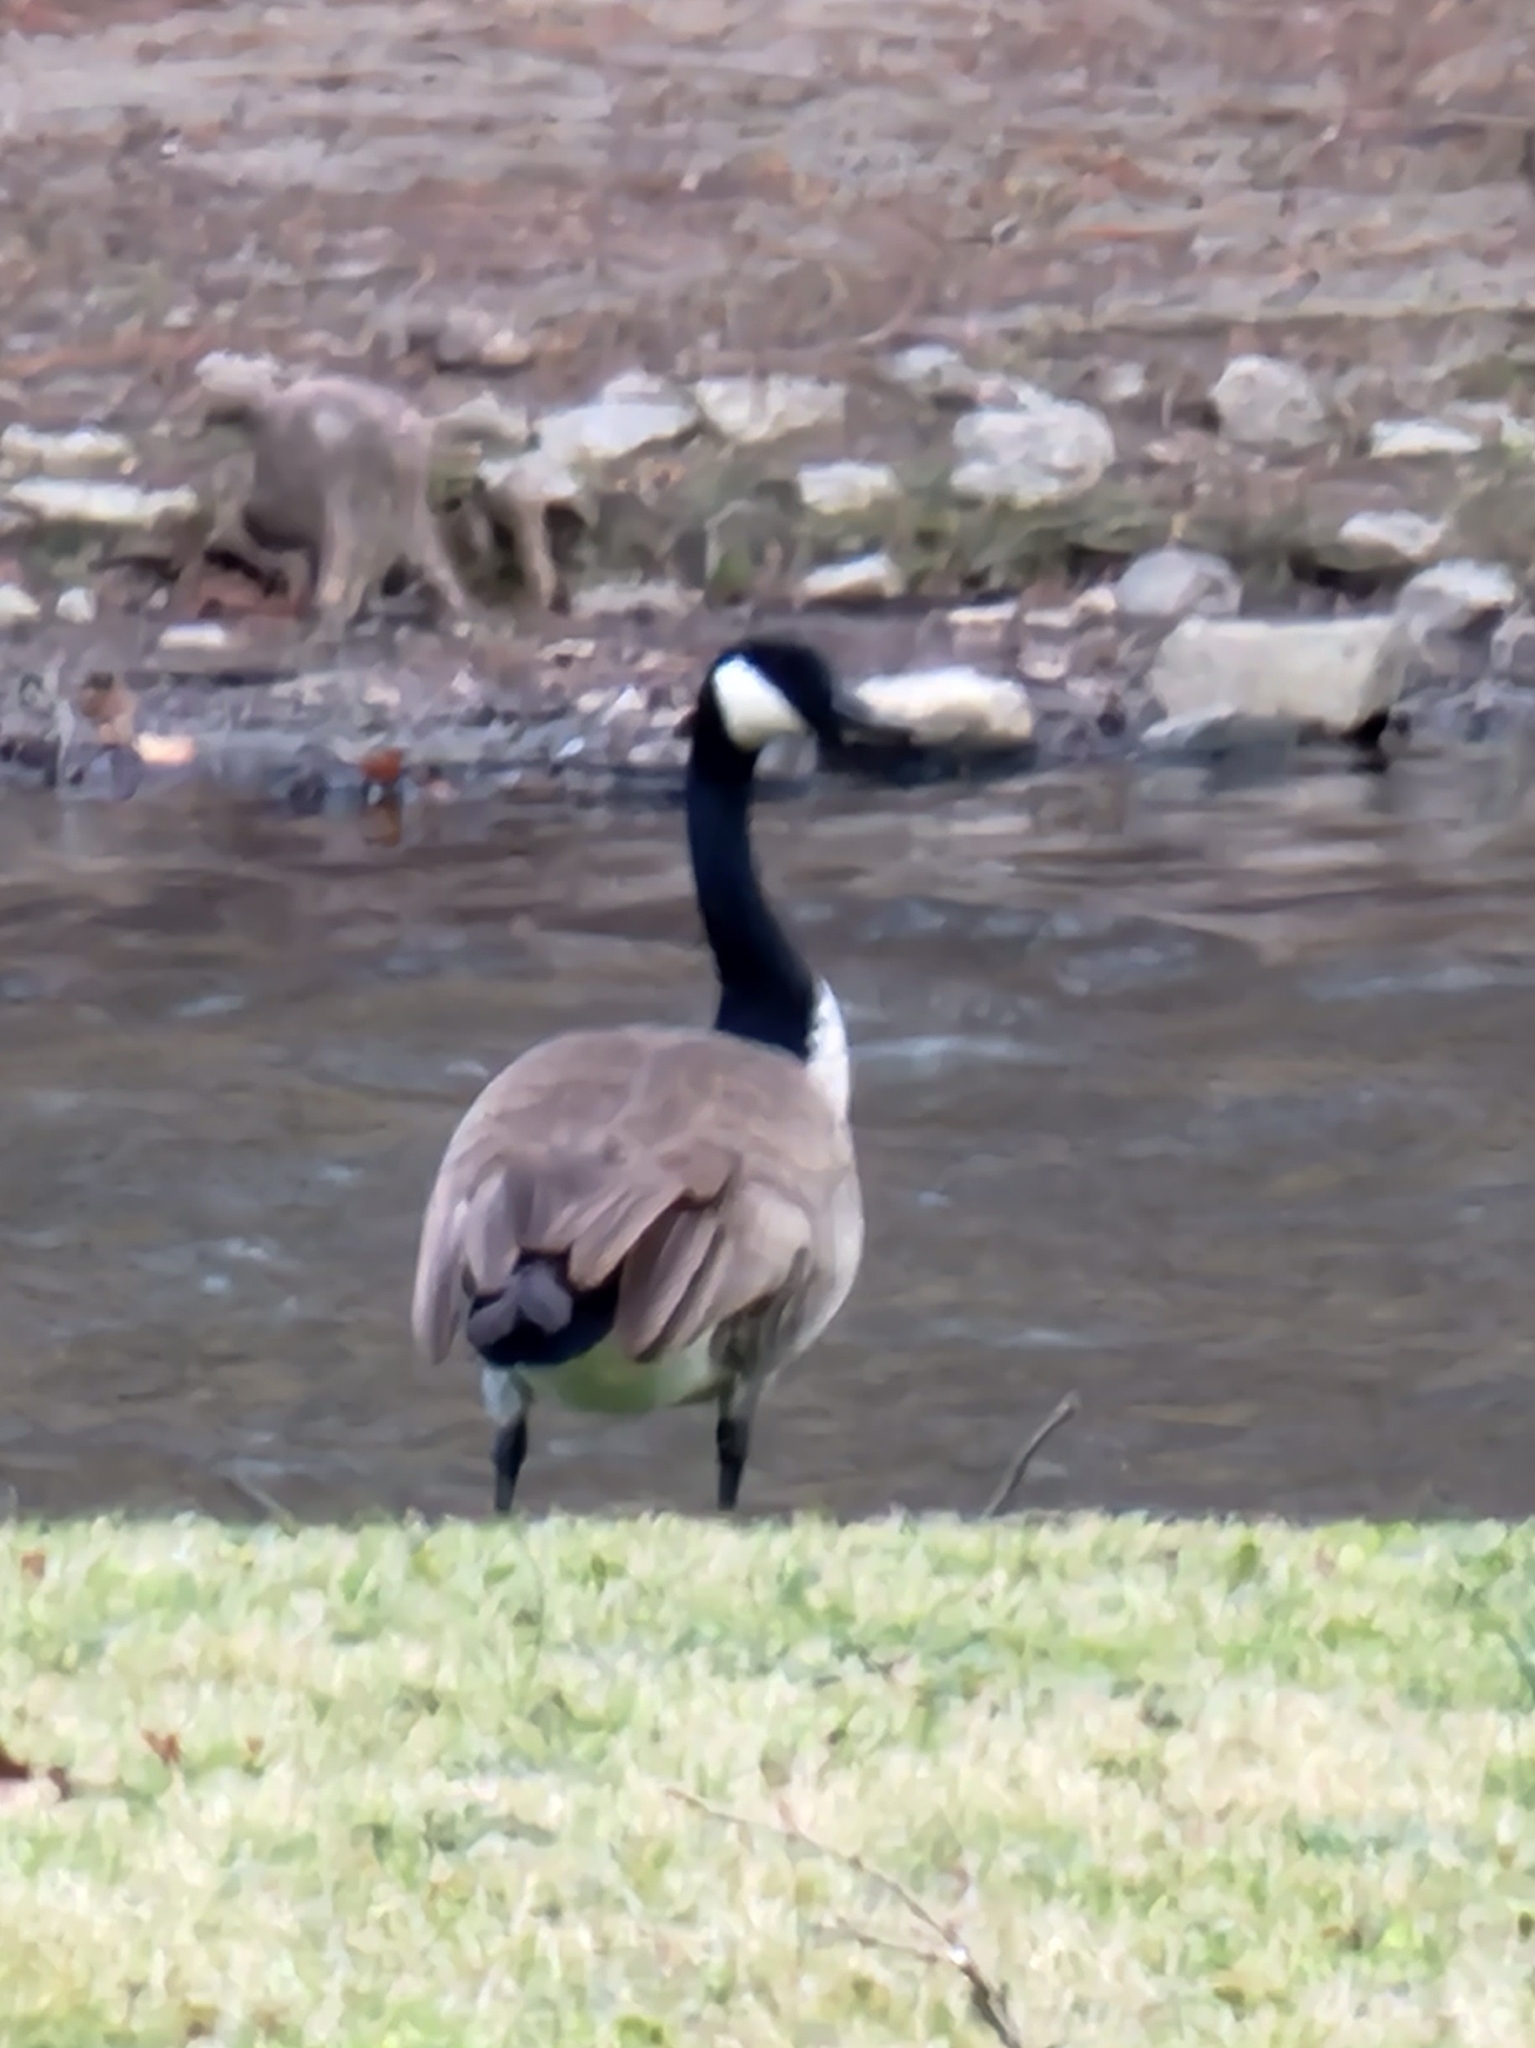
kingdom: Animalia
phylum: Chordata
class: Aves
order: Anseriformes
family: Anatidae
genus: Branta
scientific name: Branta canadensis
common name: Canada goose
